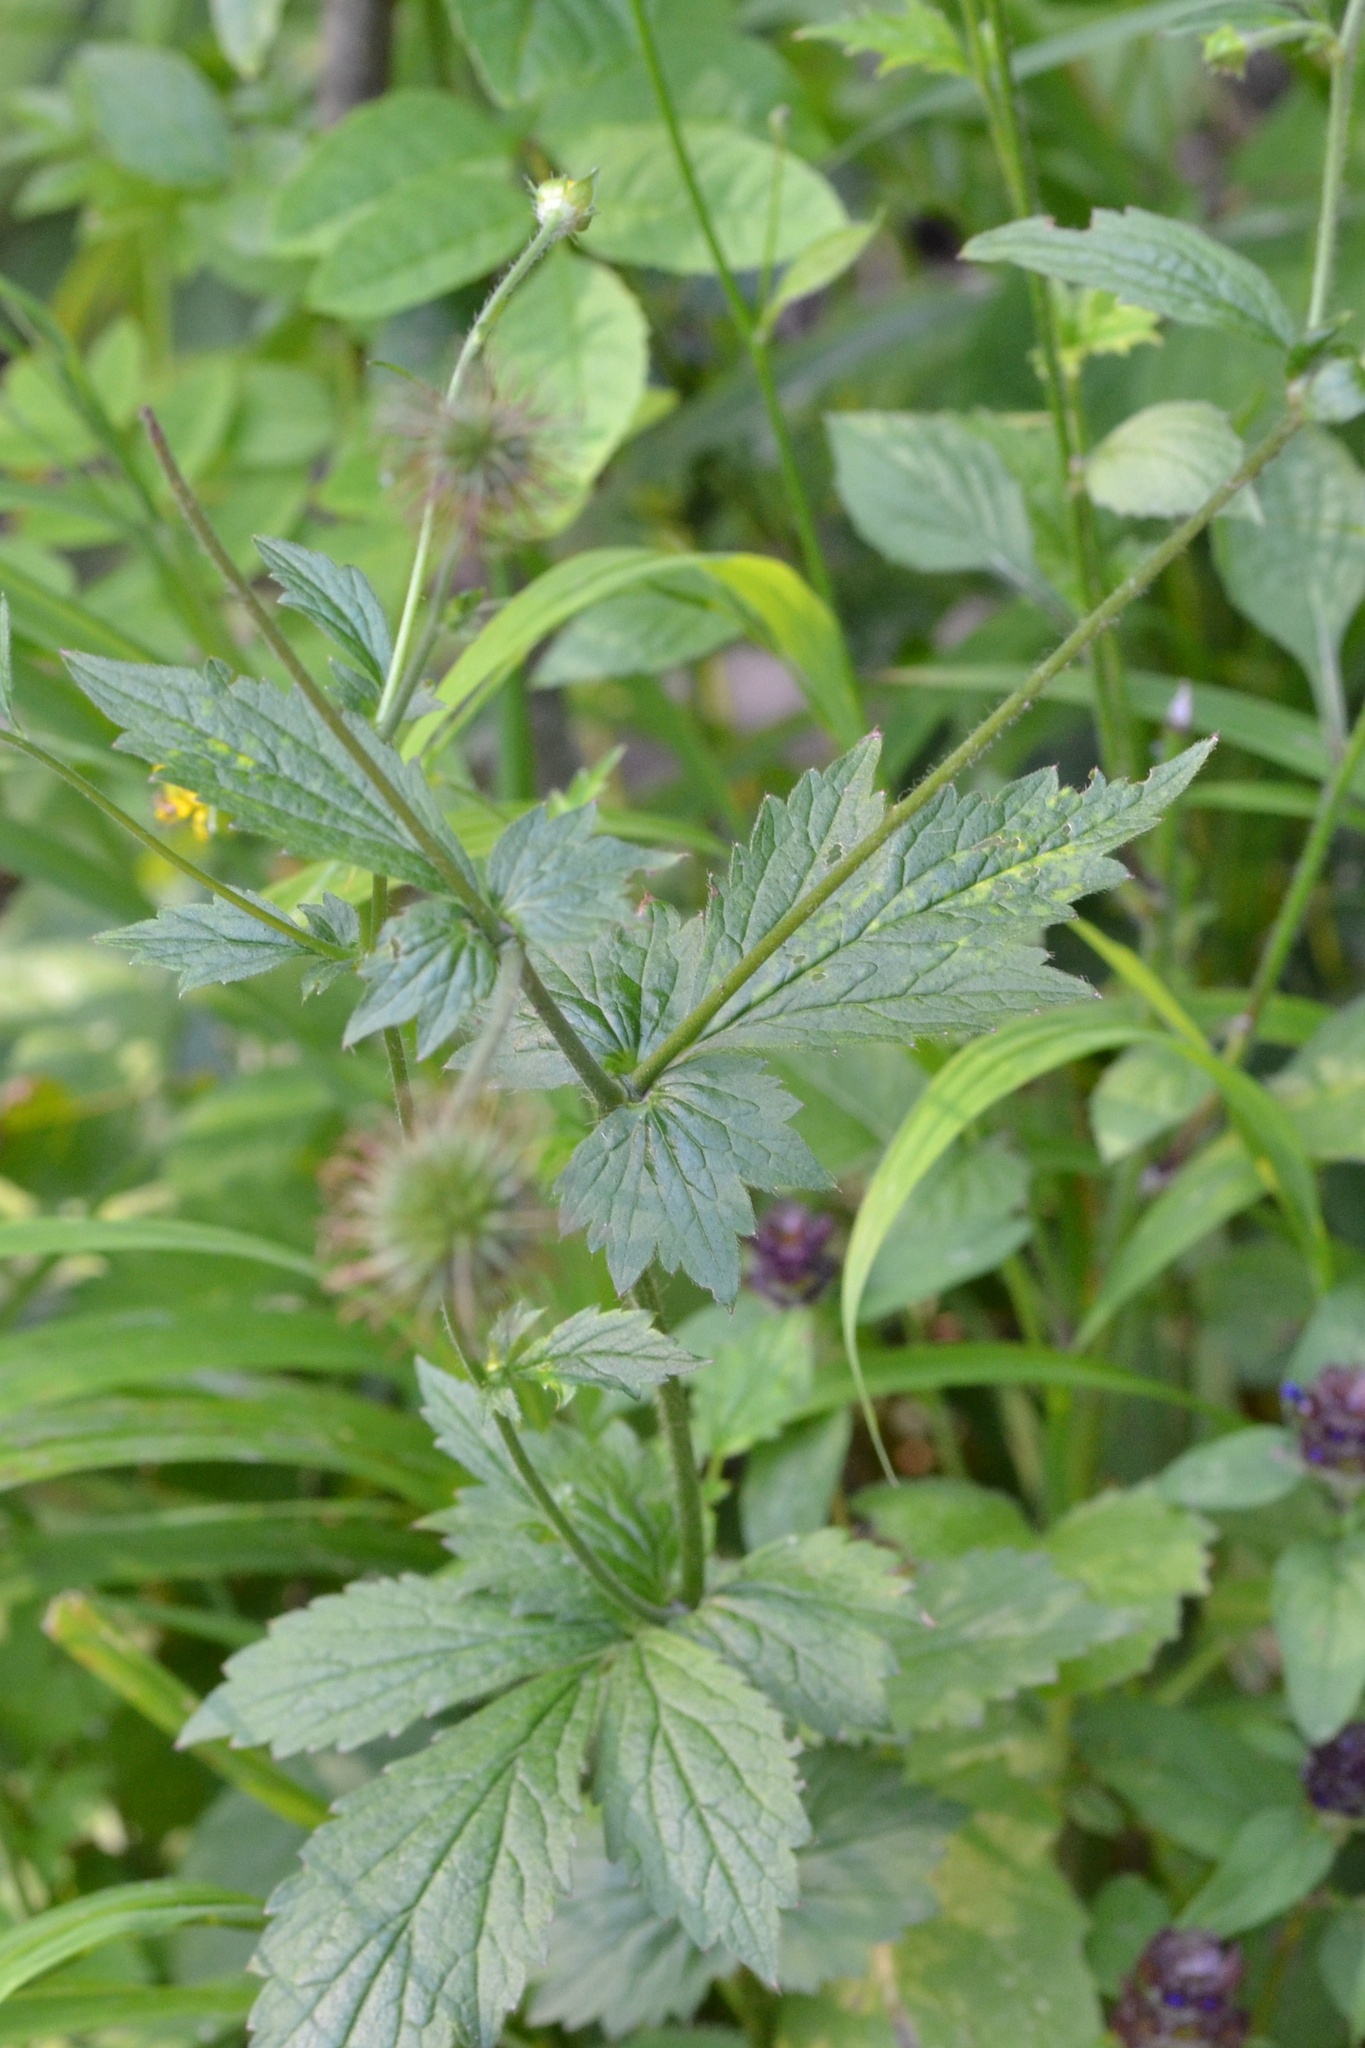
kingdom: Plantae
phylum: Tracheophyta
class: Magnoliopsida
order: Rosales
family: Rosaceae
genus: Geum
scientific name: Geum urbanum
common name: Wood avens
